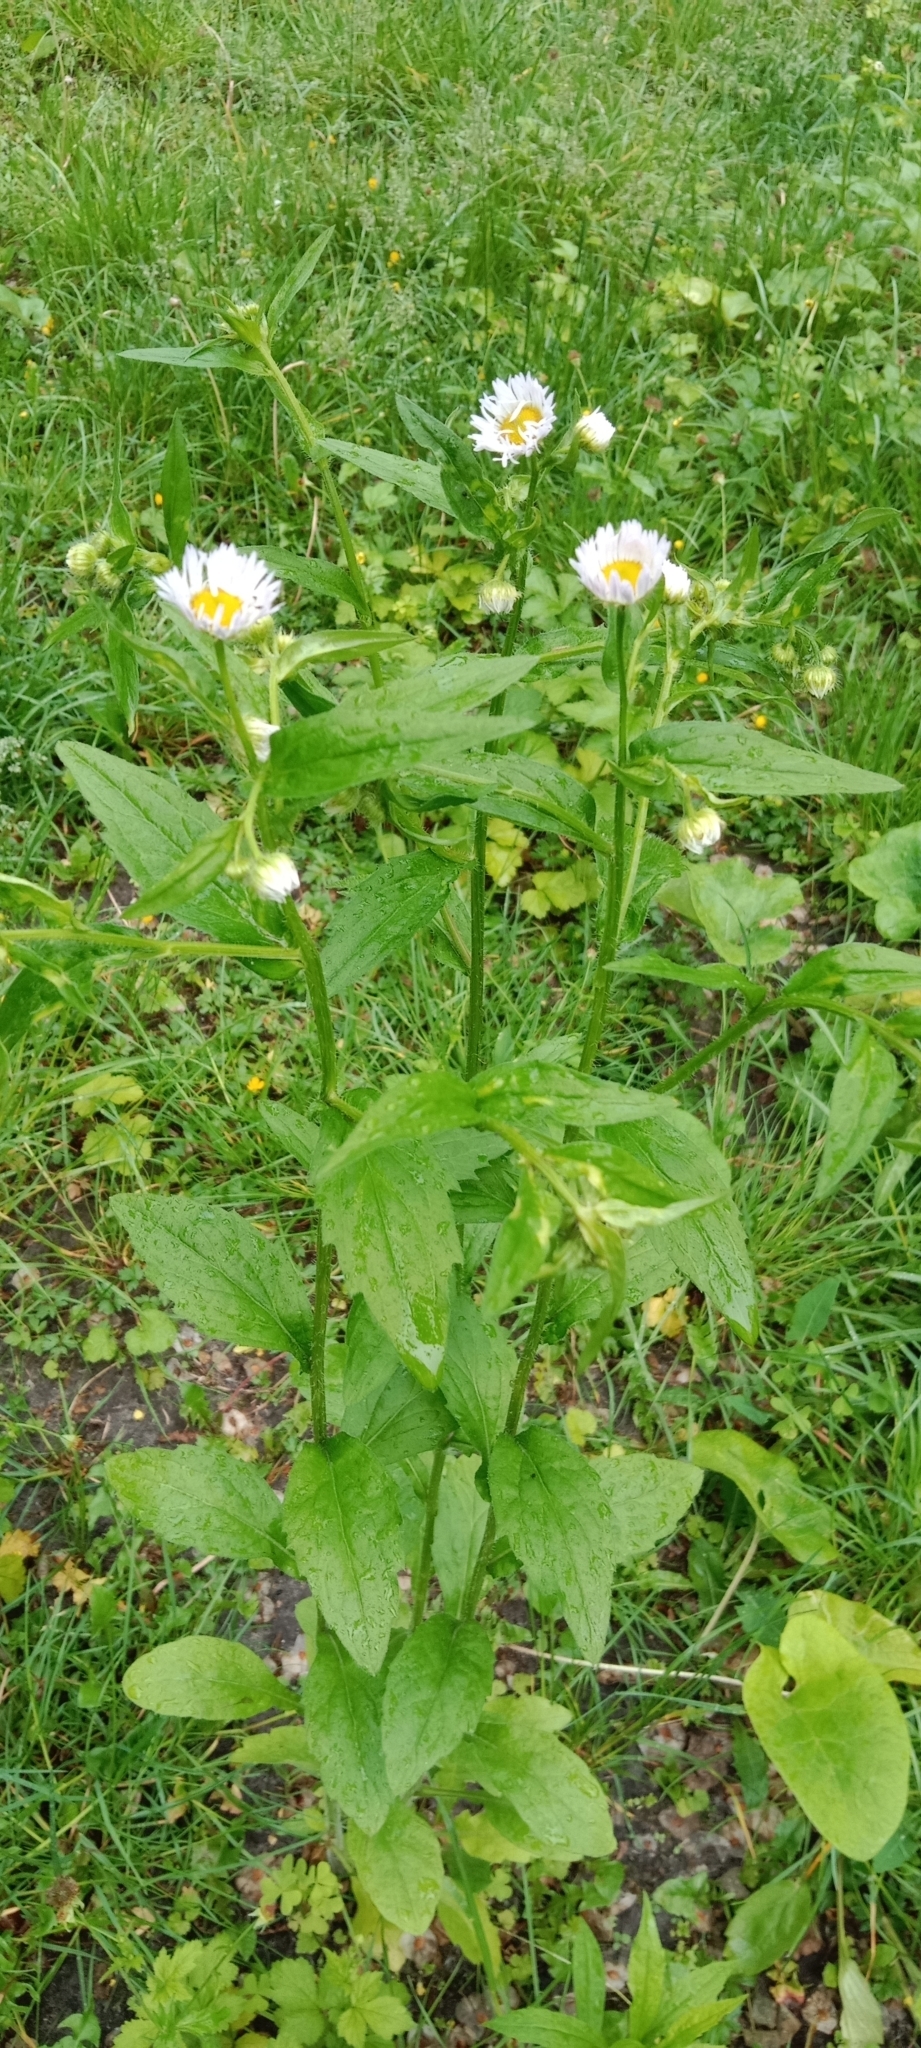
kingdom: Plantae
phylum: Tracheophyta
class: Magnoliopsida
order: Asterales
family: Asteraceae
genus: Erigeron
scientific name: Erigeron annuus
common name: Tall fleabane
